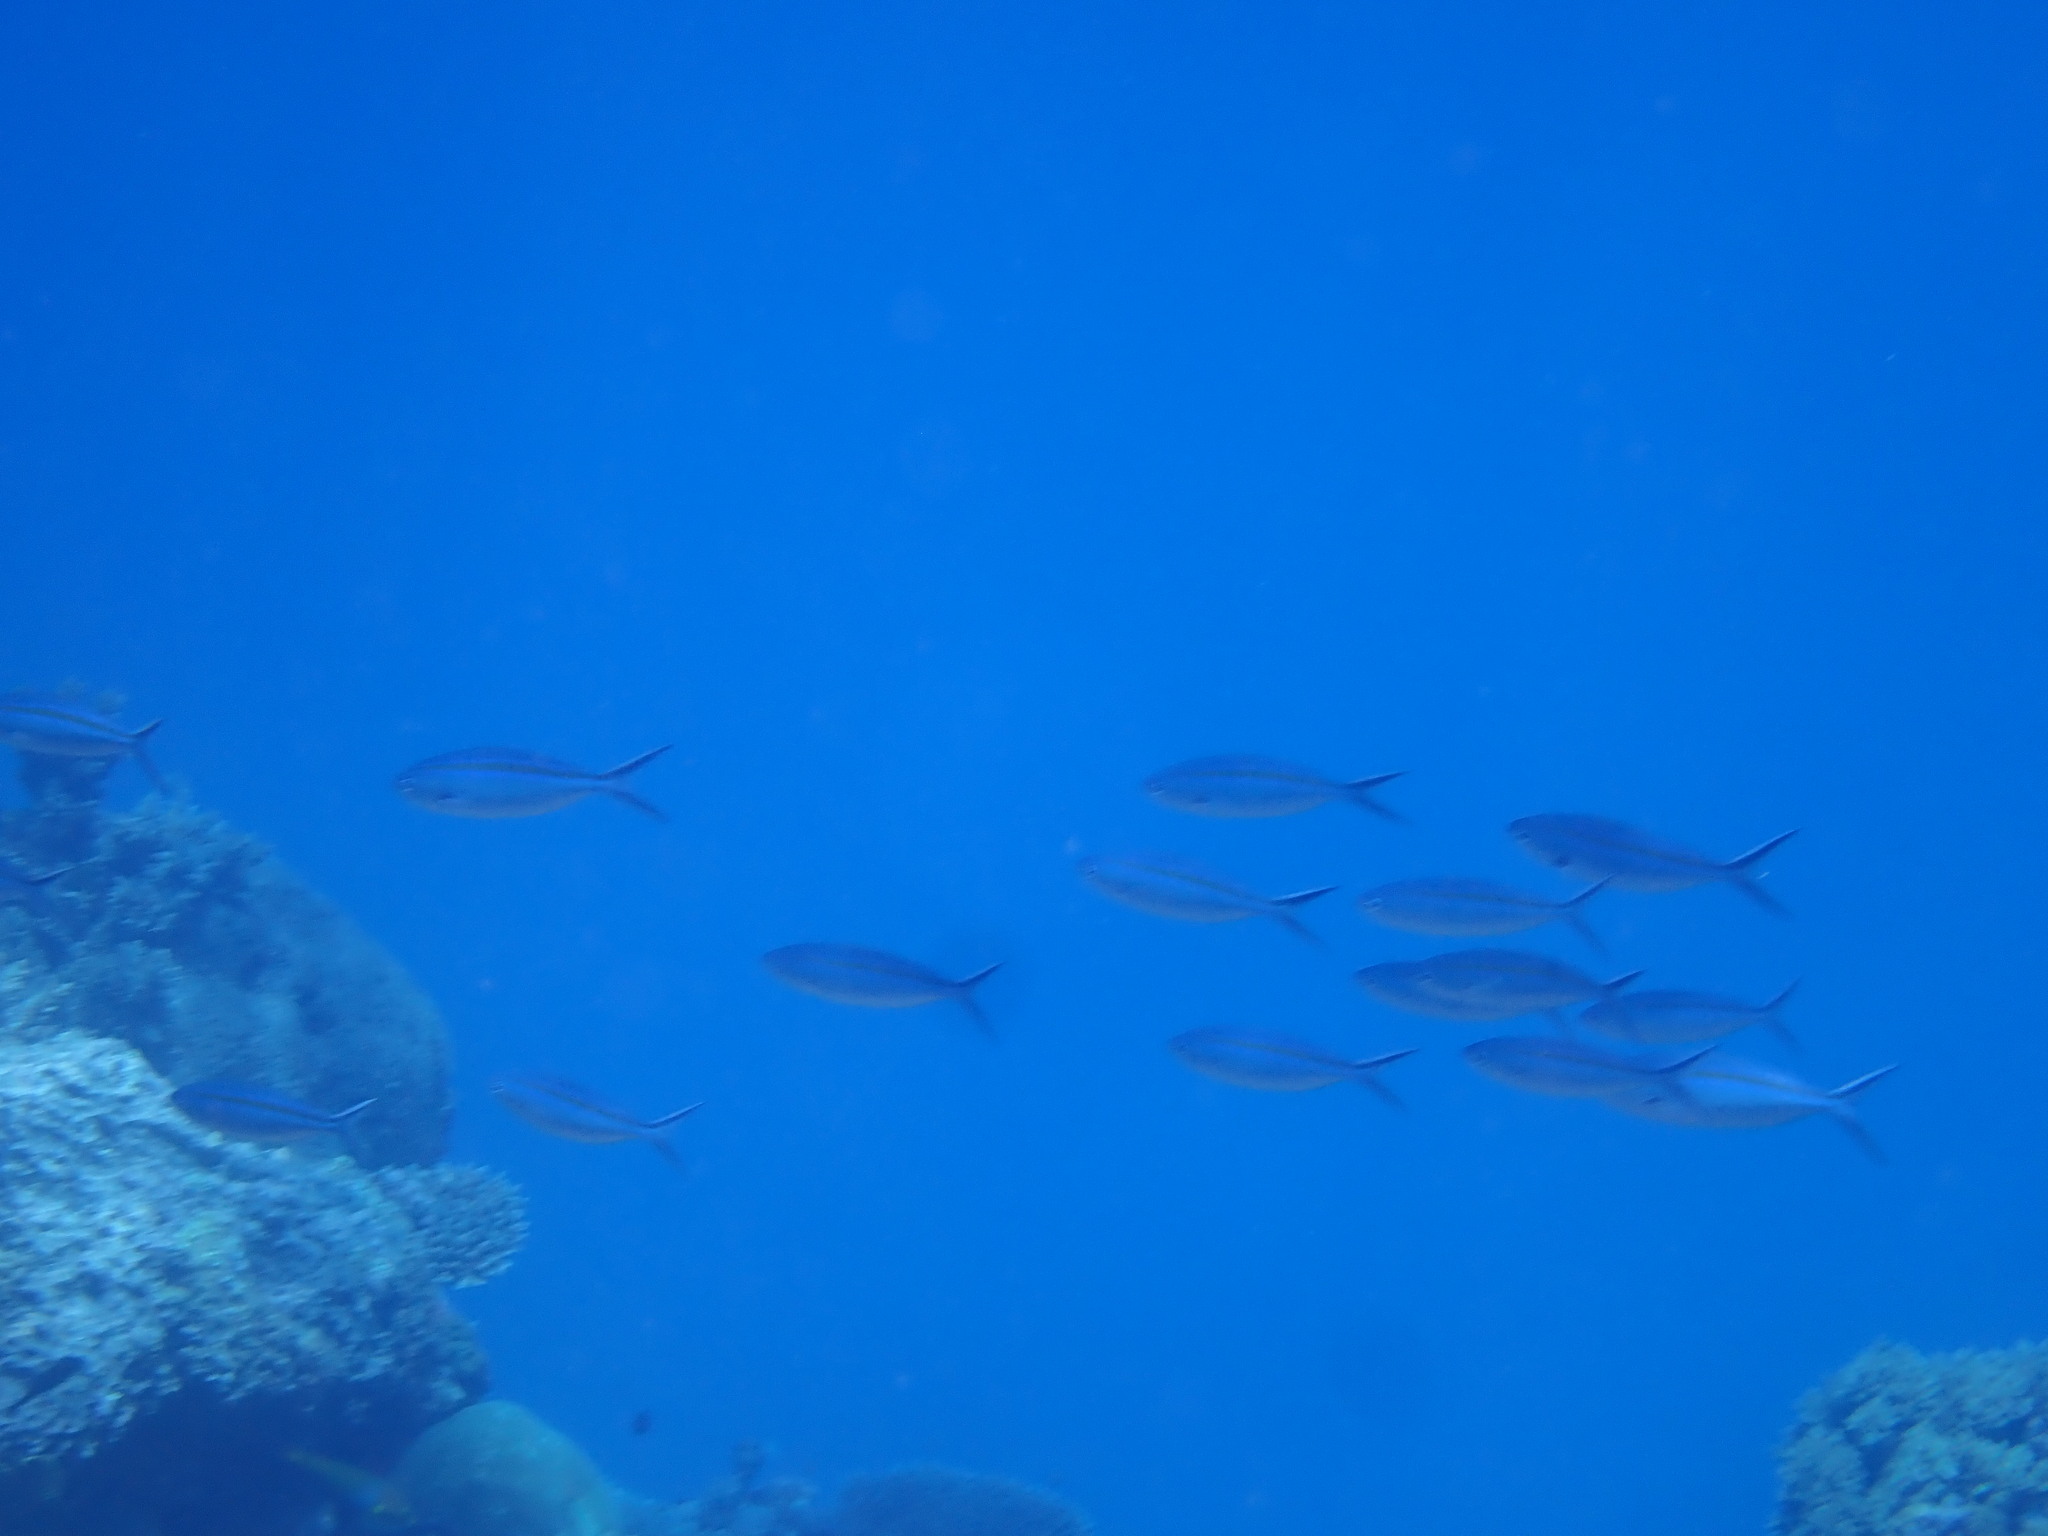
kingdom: Animalia
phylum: Chordata
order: Perciformes
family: Caesionidae
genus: Caesio
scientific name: Caesio caerulaurea
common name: Blue and gold fusilier
